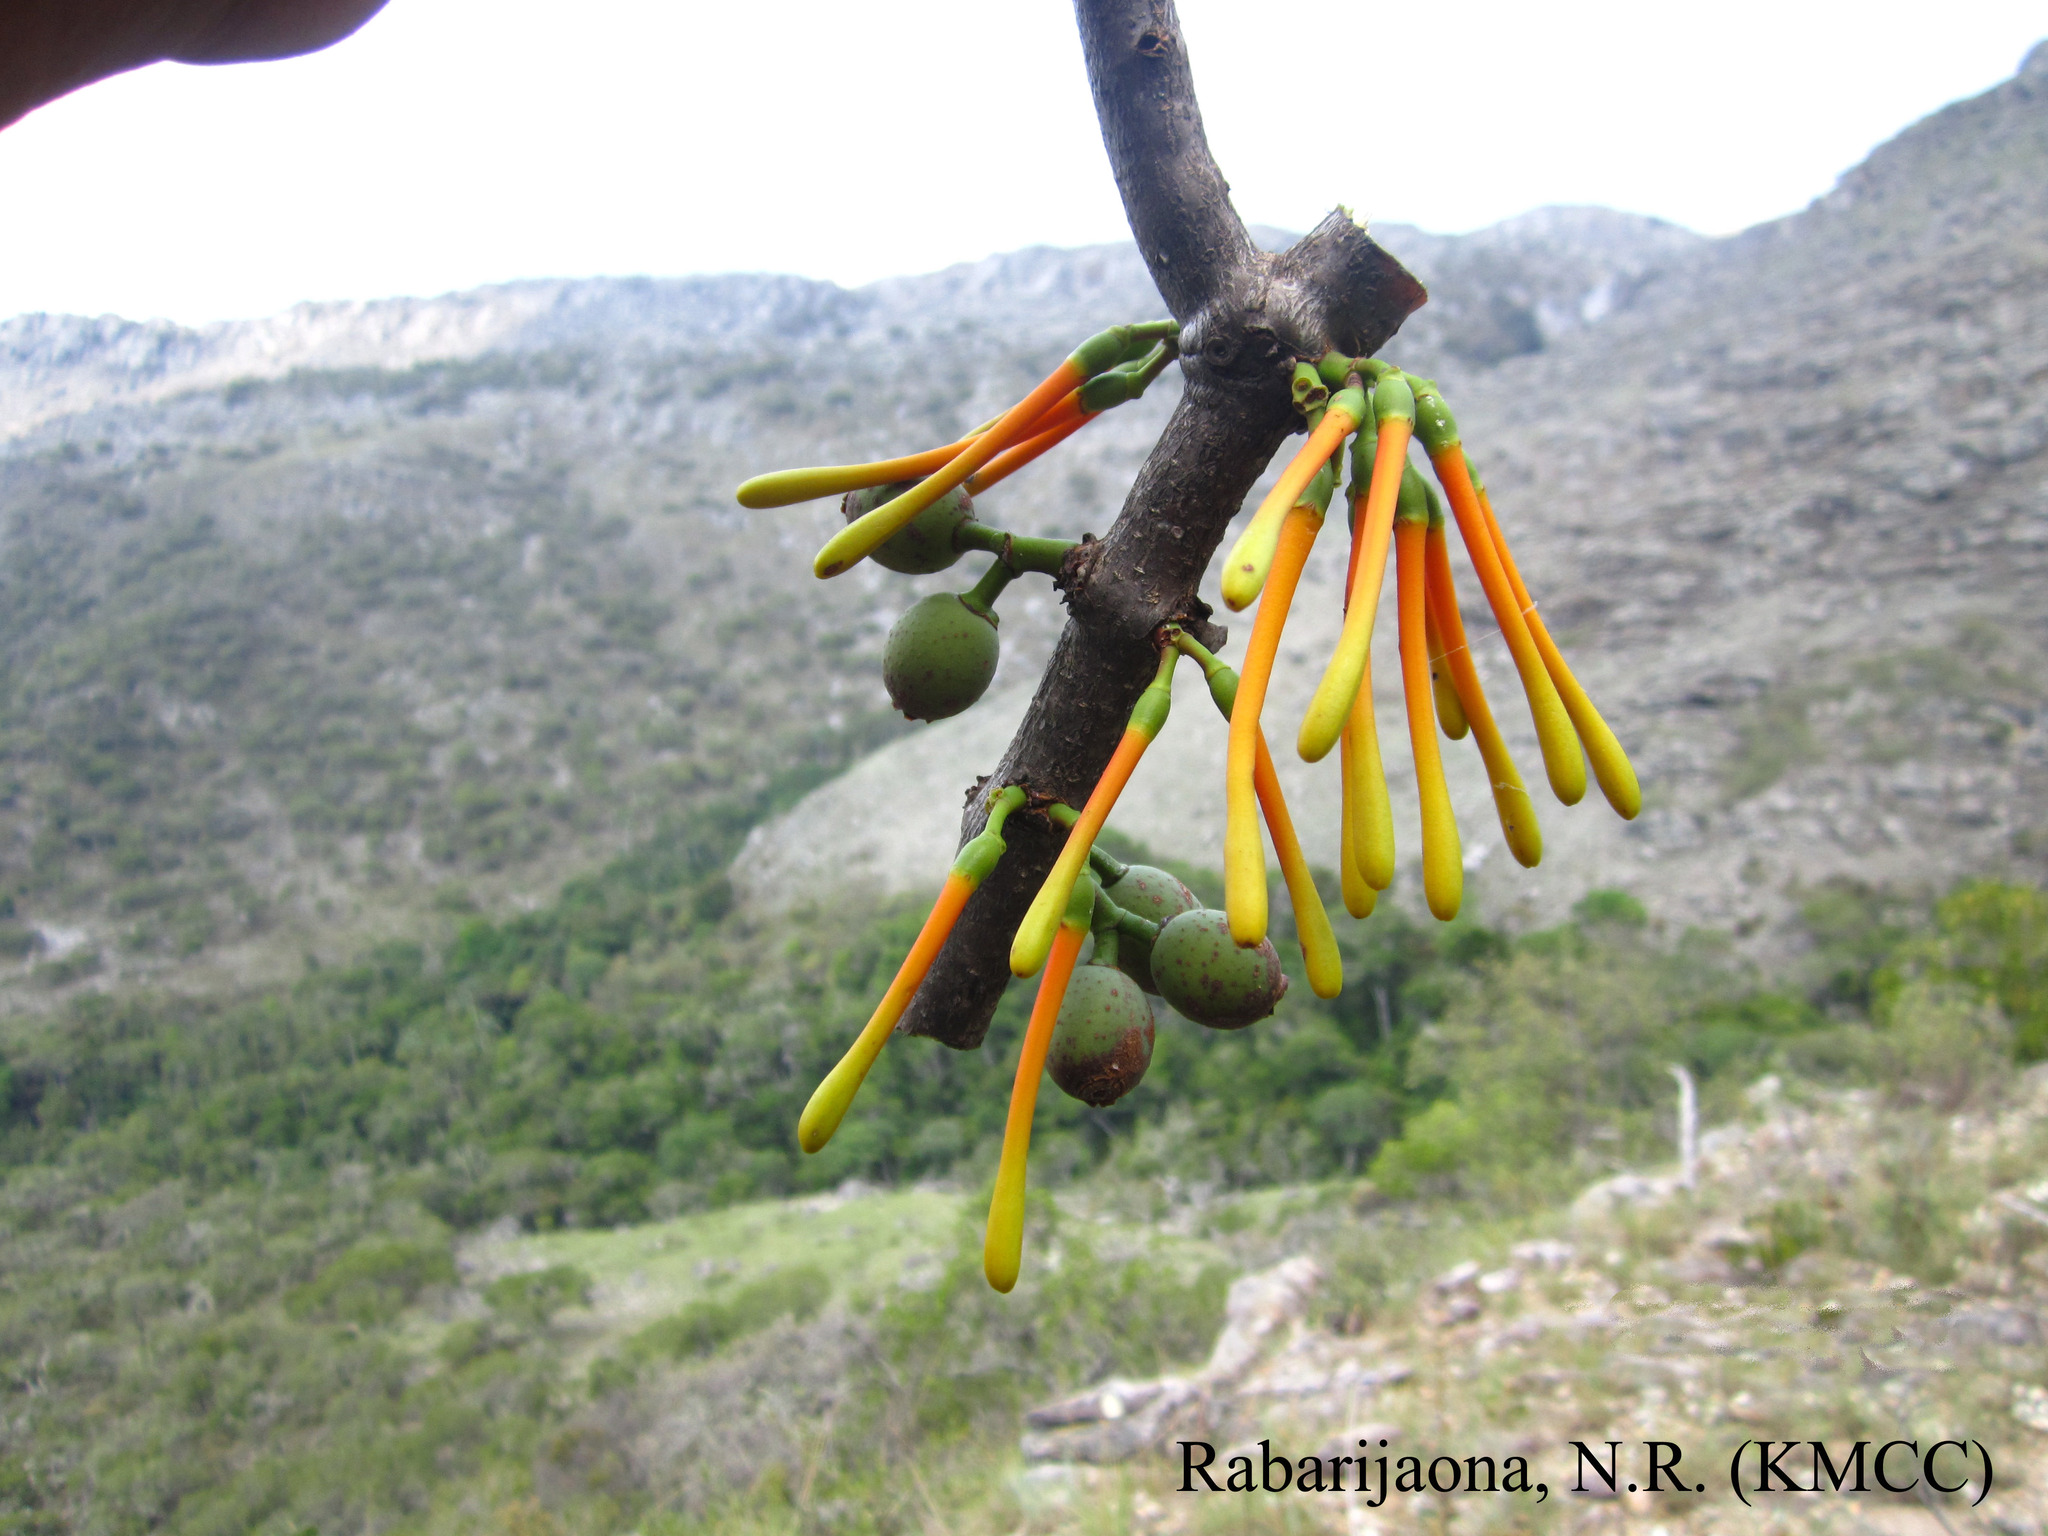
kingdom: Plantae
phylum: Tracheophyta
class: Magnoliopsida
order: Santalales
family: Loranthaceae
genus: Bakerella
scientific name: Bakerella ambongoensis
